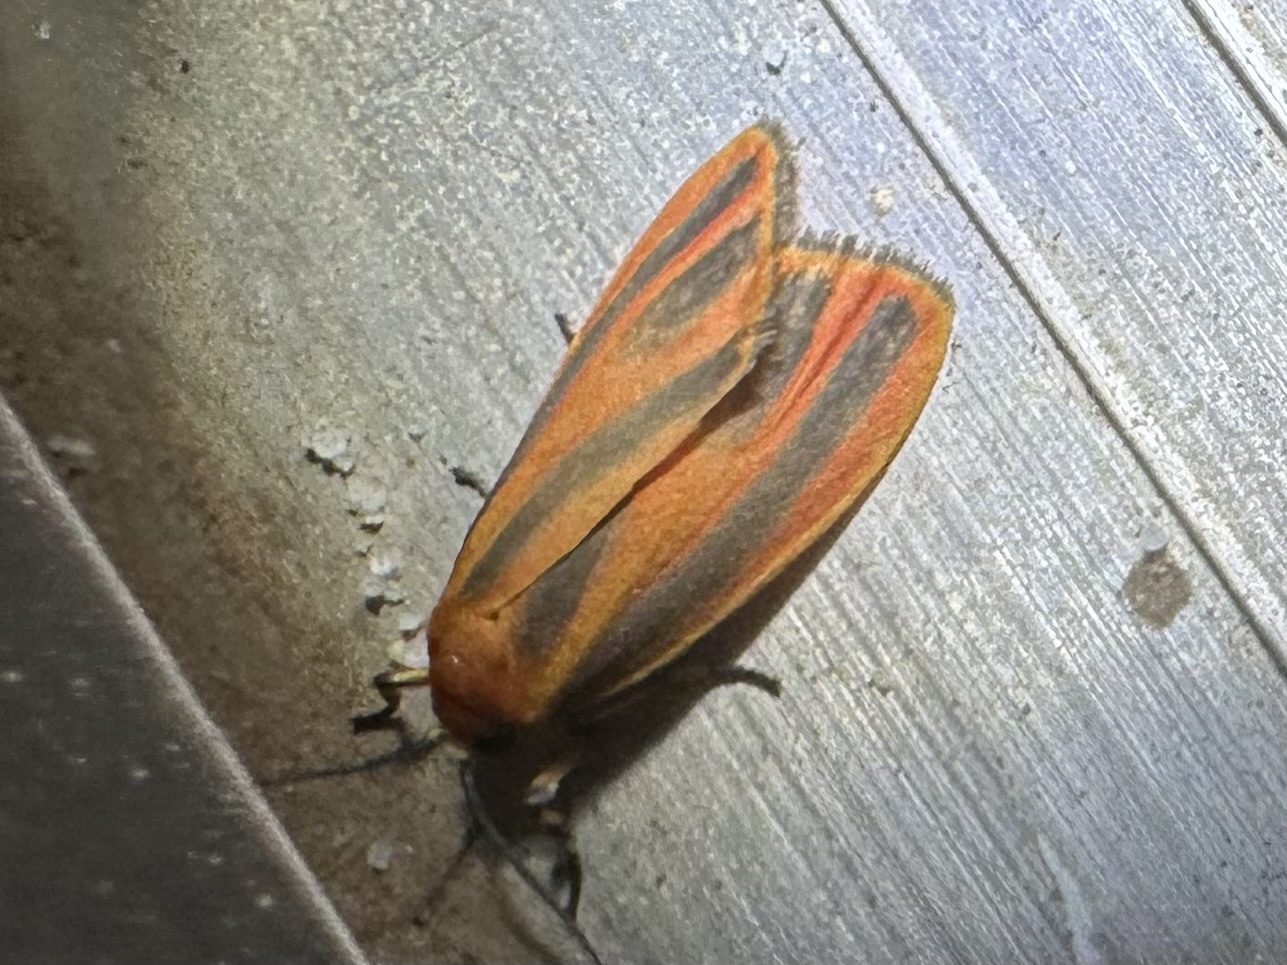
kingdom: Animalia
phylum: Arthropoda
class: Insecta
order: Lepidoptera
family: Erebidae
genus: Hypoprepia
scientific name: Hypoprepia miniata
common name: Scarlet-winged lichen moth
